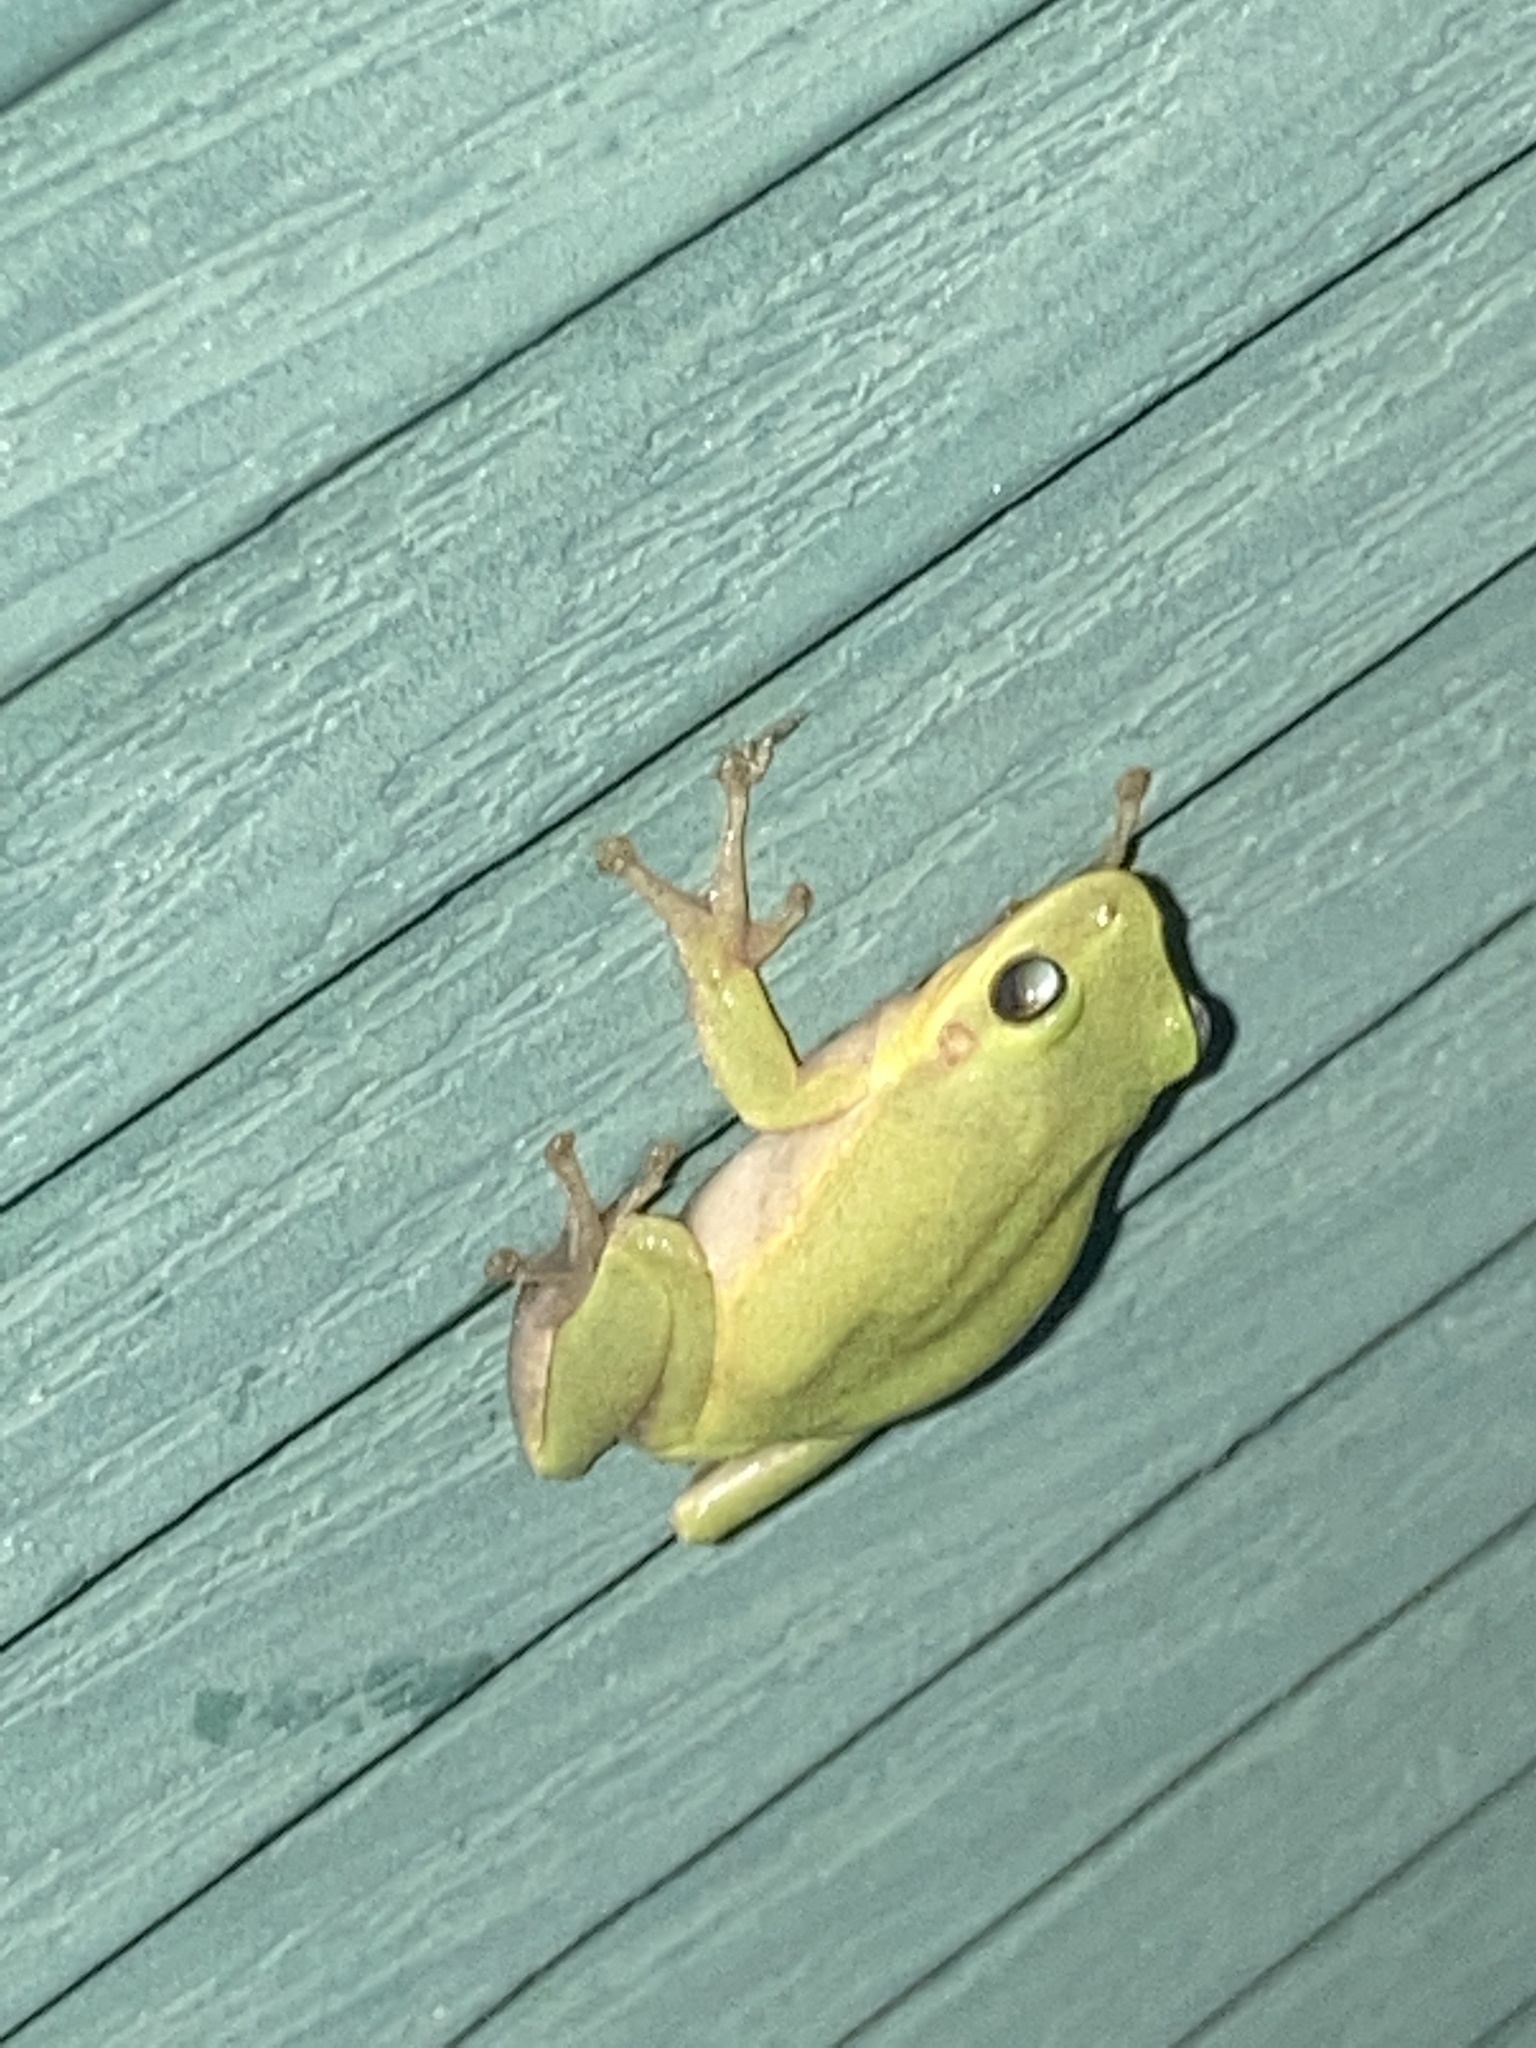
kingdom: Animalia
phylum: Chordata
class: Amphibia
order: Anura
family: Hylidae
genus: Dryophytes
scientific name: Dryophytes squirellus
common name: Squirrel treefrog
